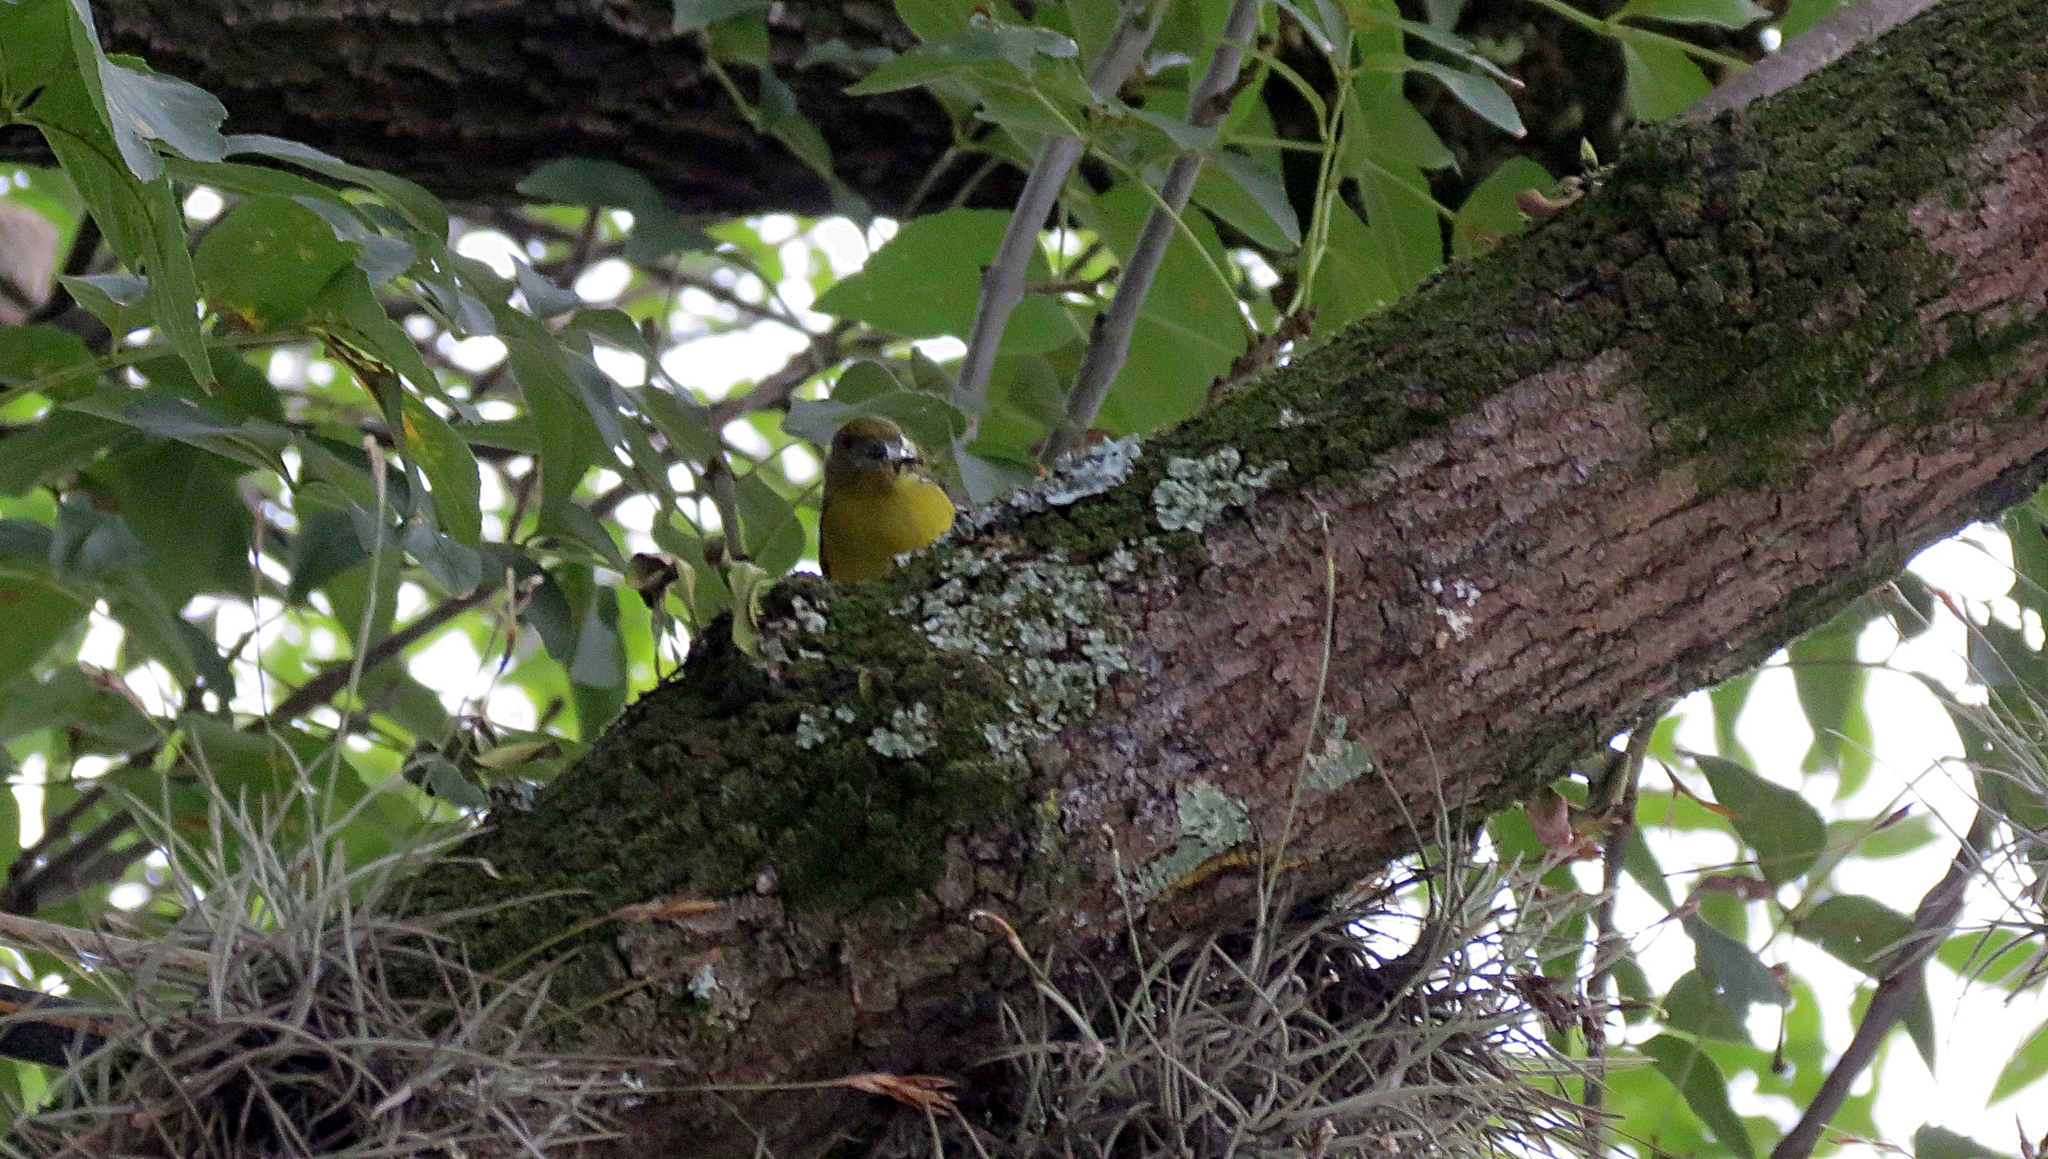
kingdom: Animalia
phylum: Chordata
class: Aves
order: Passeriformes
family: Fringillidae
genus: Euphonia
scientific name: Euphonia laniirostris
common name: Thick-billed euphonia
